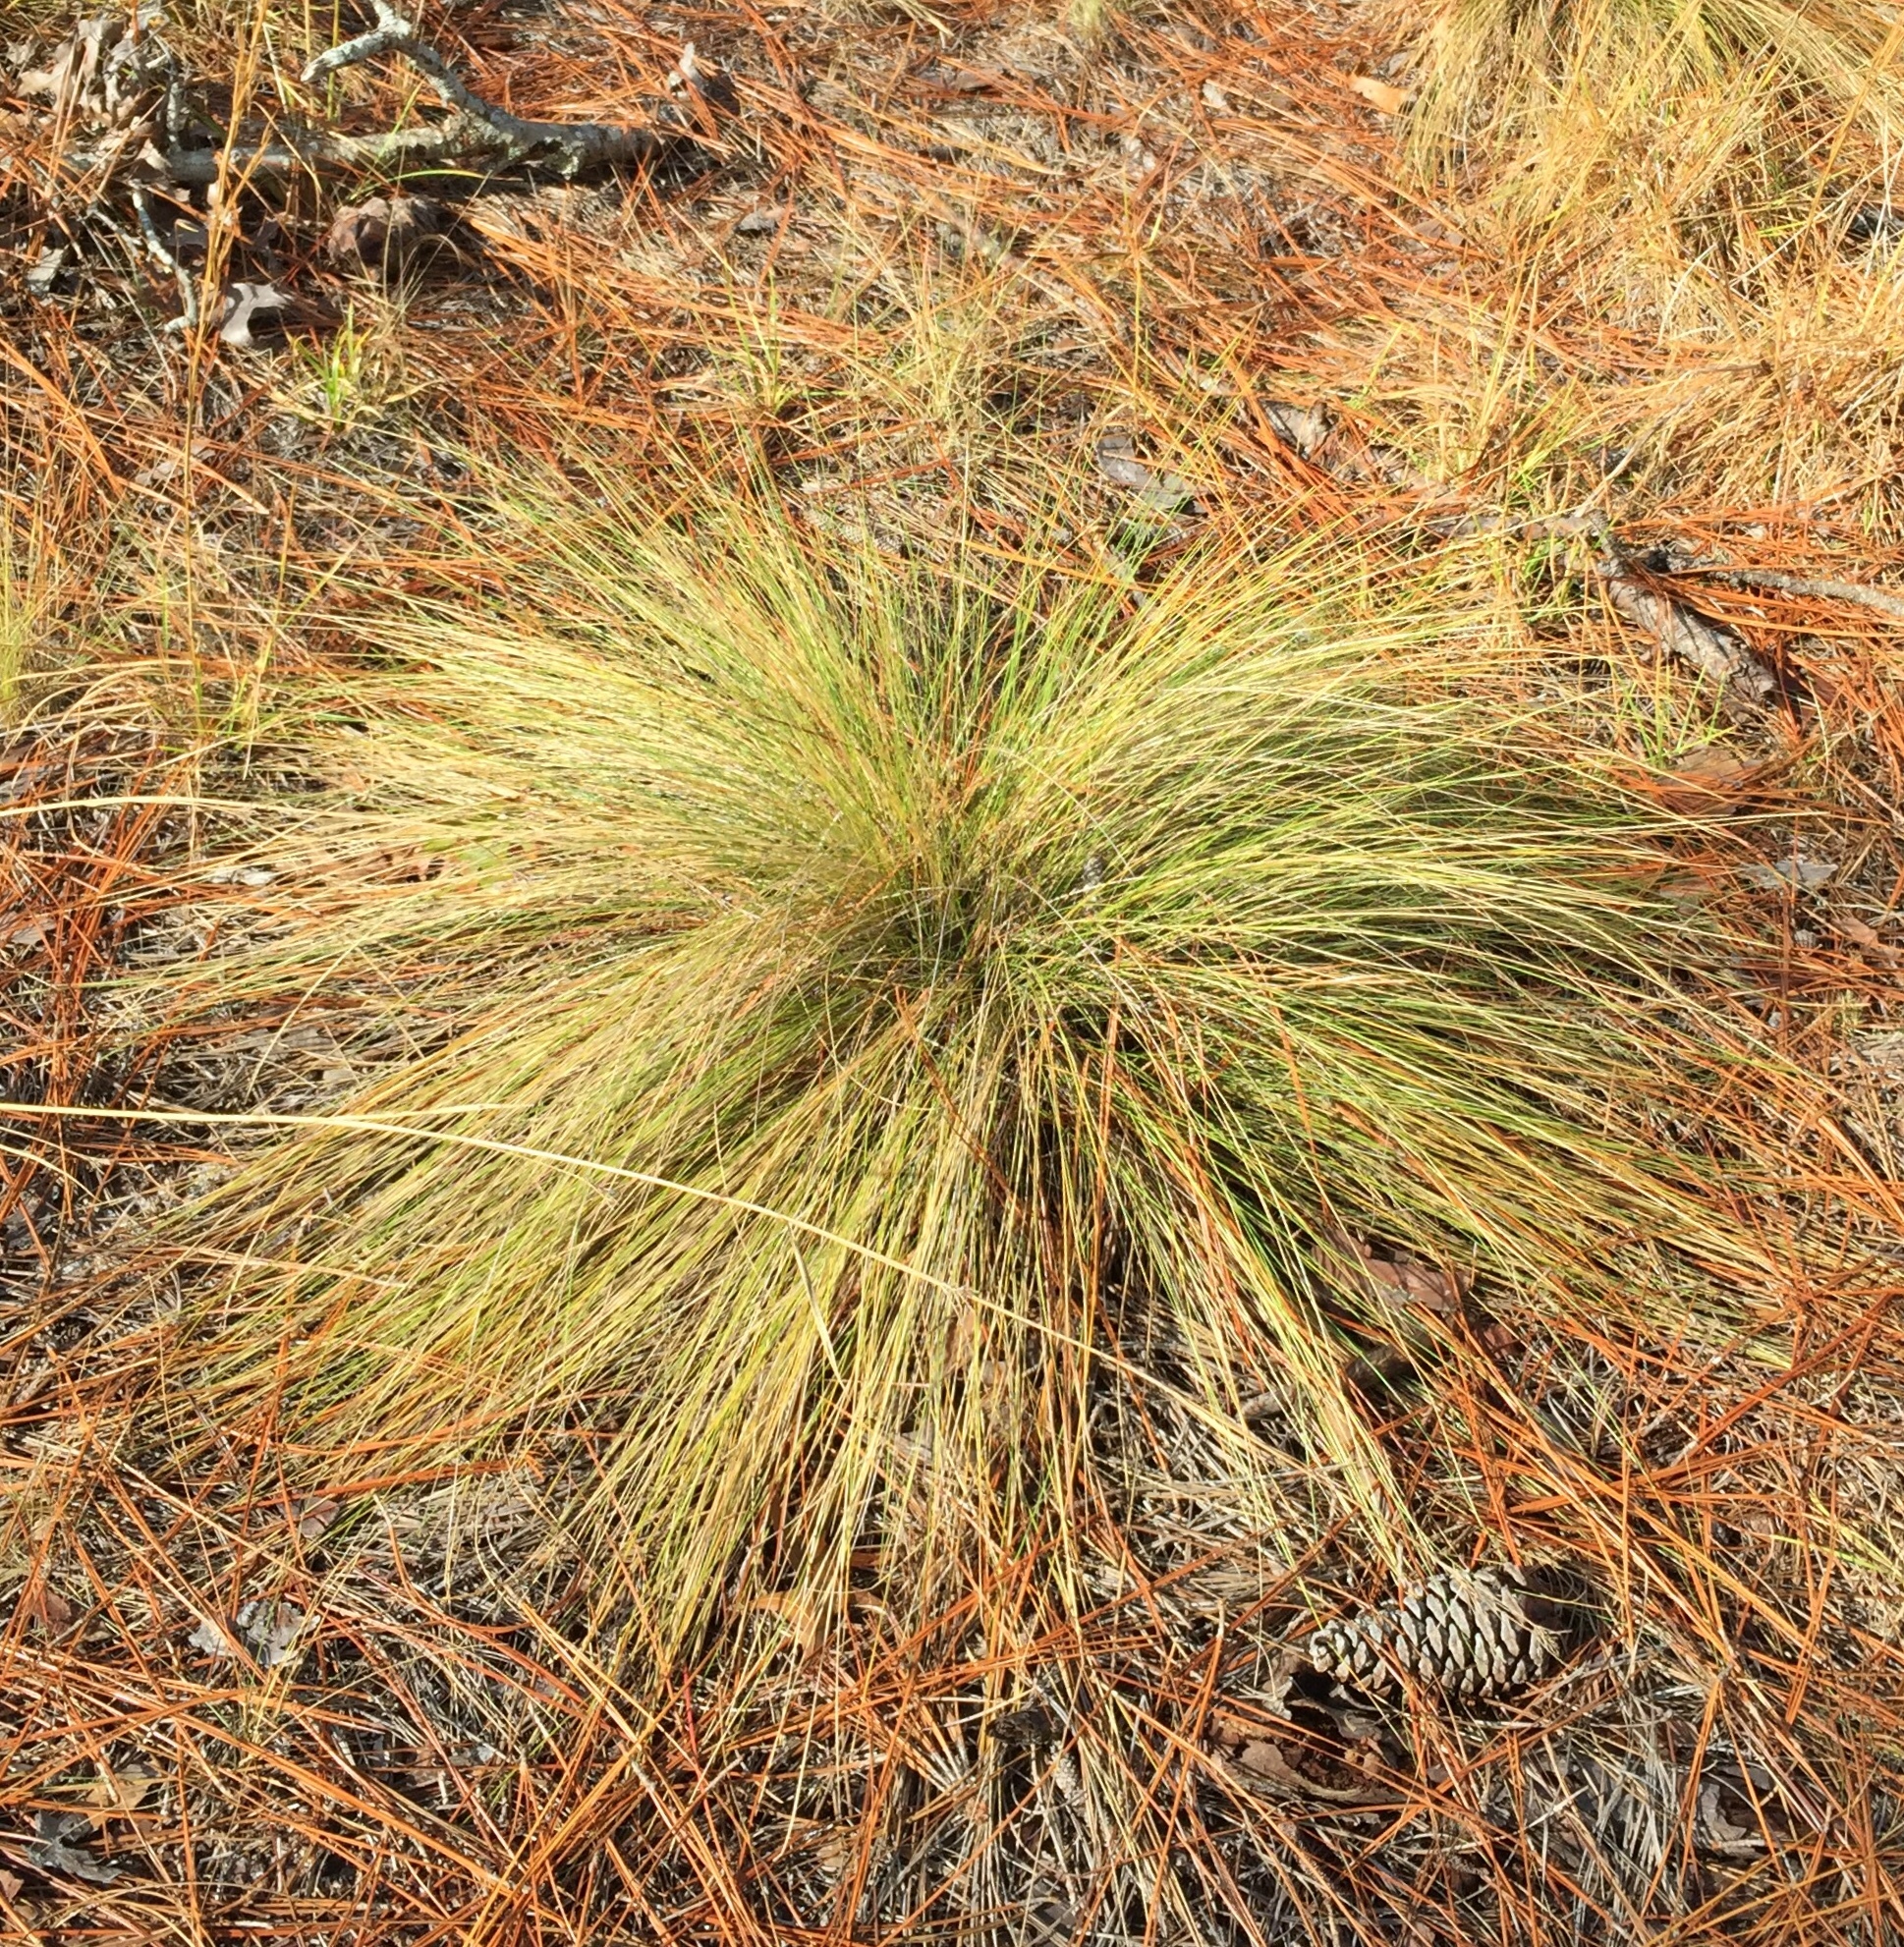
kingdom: Plantae
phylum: Tracheophyta
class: Liliopsida
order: Poales
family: Poaceae
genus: Aristida
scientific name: Aristida stricta
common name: Pineland three-awn
